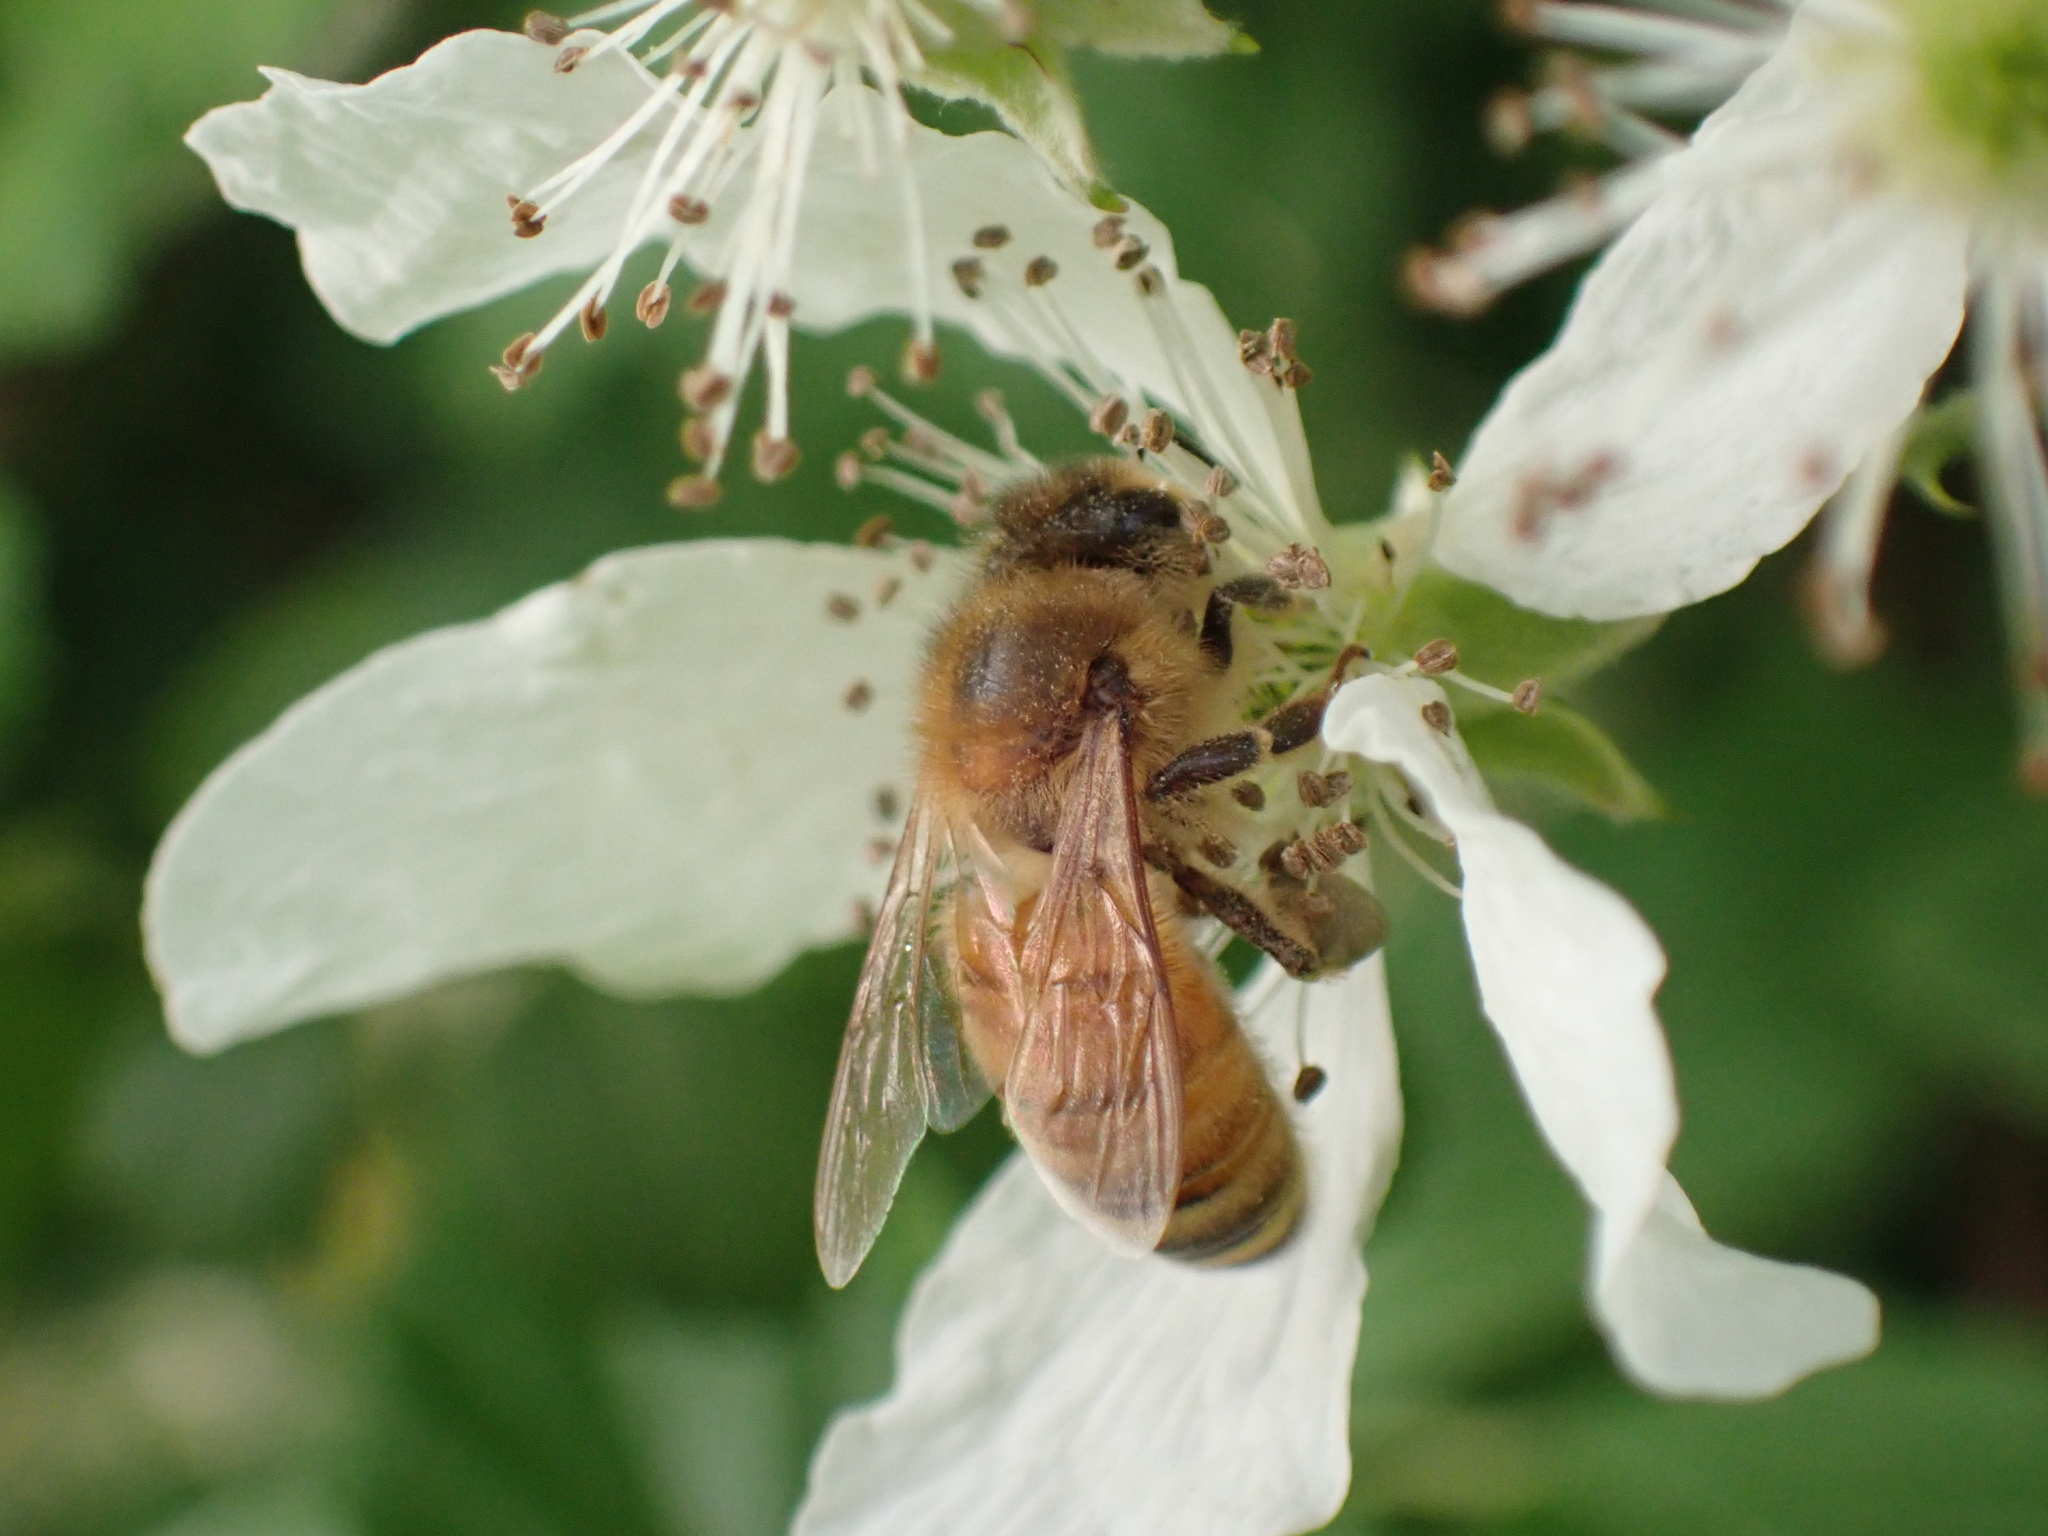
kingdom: Animalia
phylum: Arthropoda
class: Insecta
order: Hymenoptera
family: Apidae
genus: Apis
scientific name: Apis mellifera
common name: Honey bee
